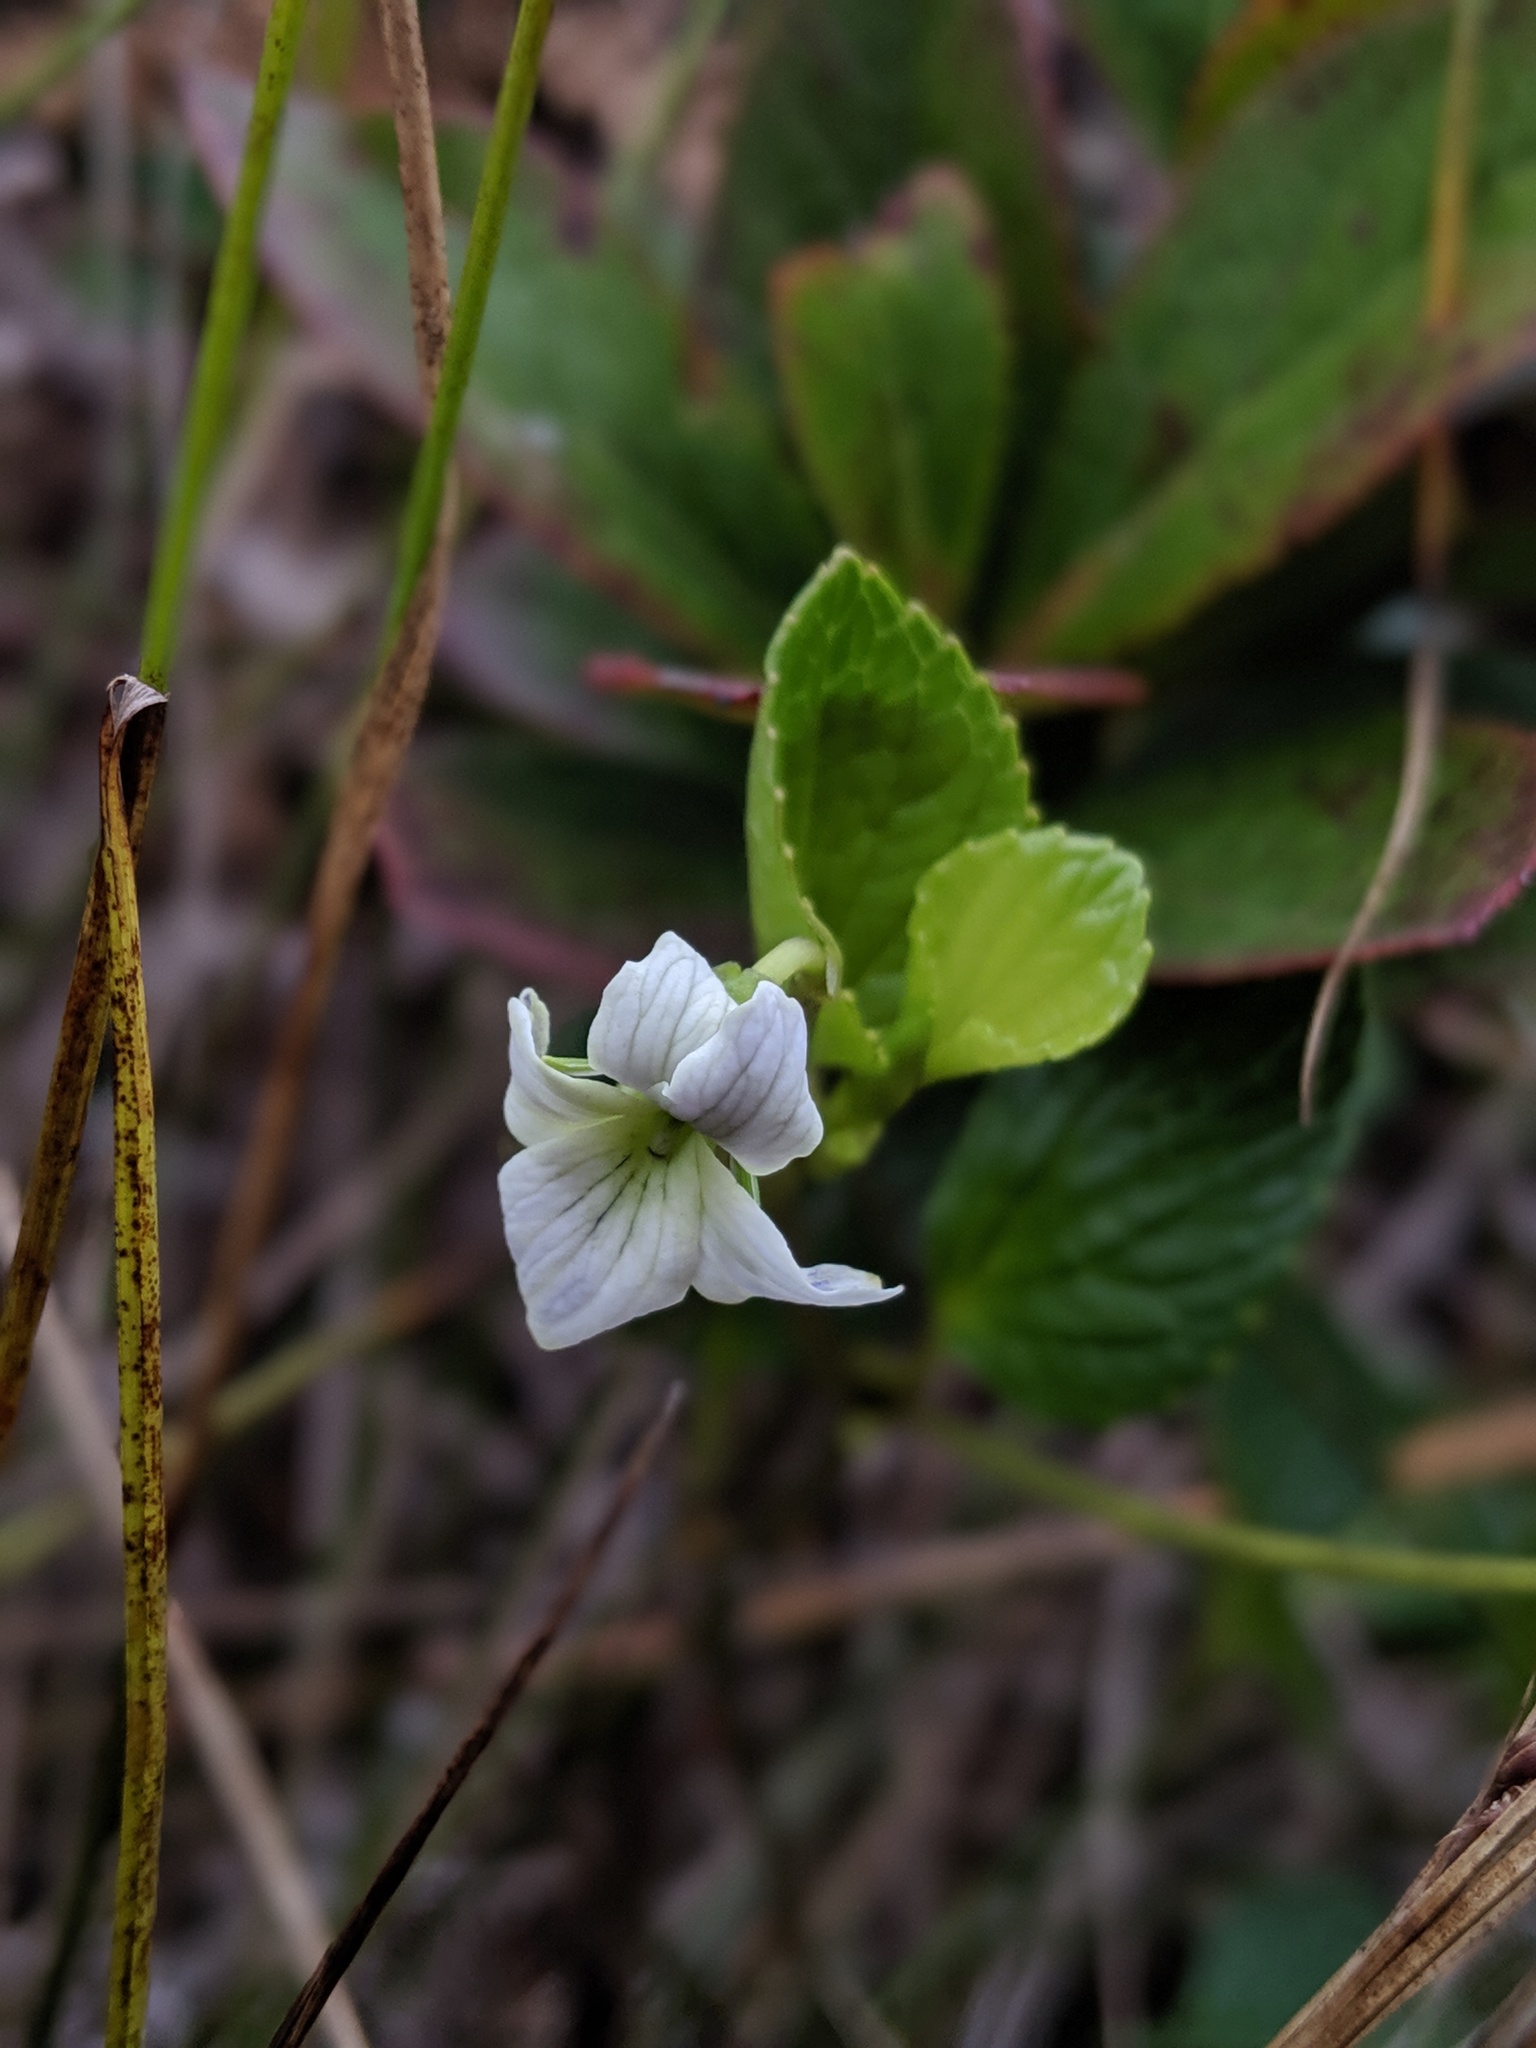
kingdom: Plantae
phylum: Tracheophyta
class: Magnoliopsida
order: Malpighiales
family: Violaceae
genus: Viola
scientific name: Viola kauaensis
